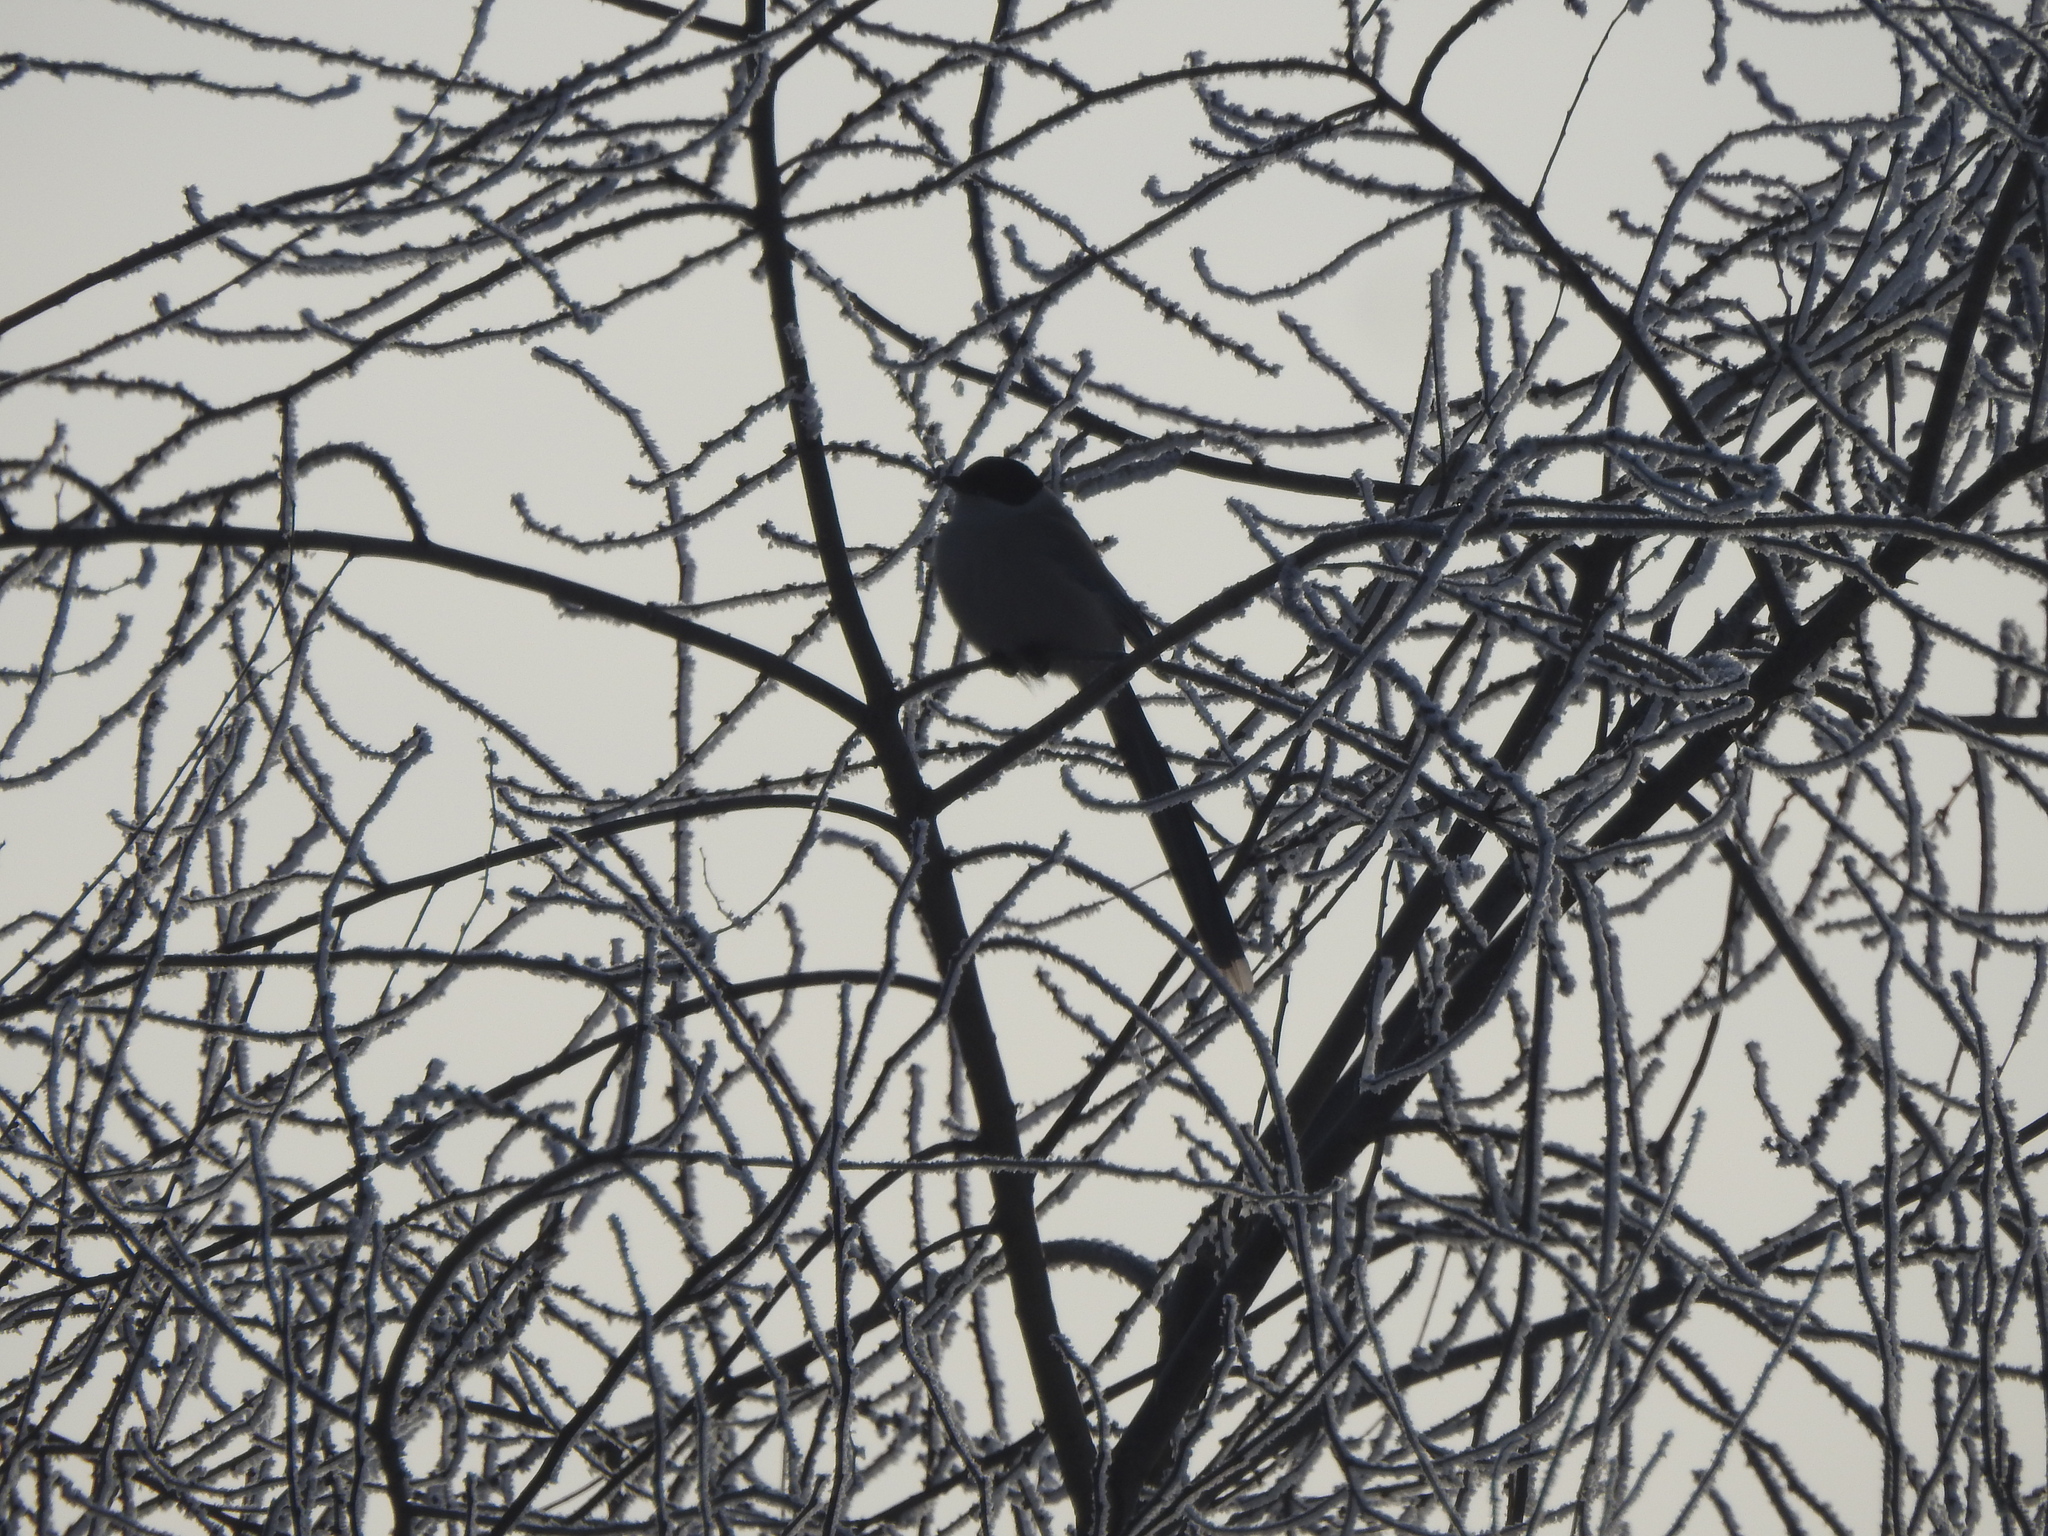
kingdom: Animalia
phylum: Chordata
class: Aves
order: Passeriformes
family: Corvidae
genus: Cyanopica
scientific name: Cyanopica cyanus
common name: Azure-winged magpie
